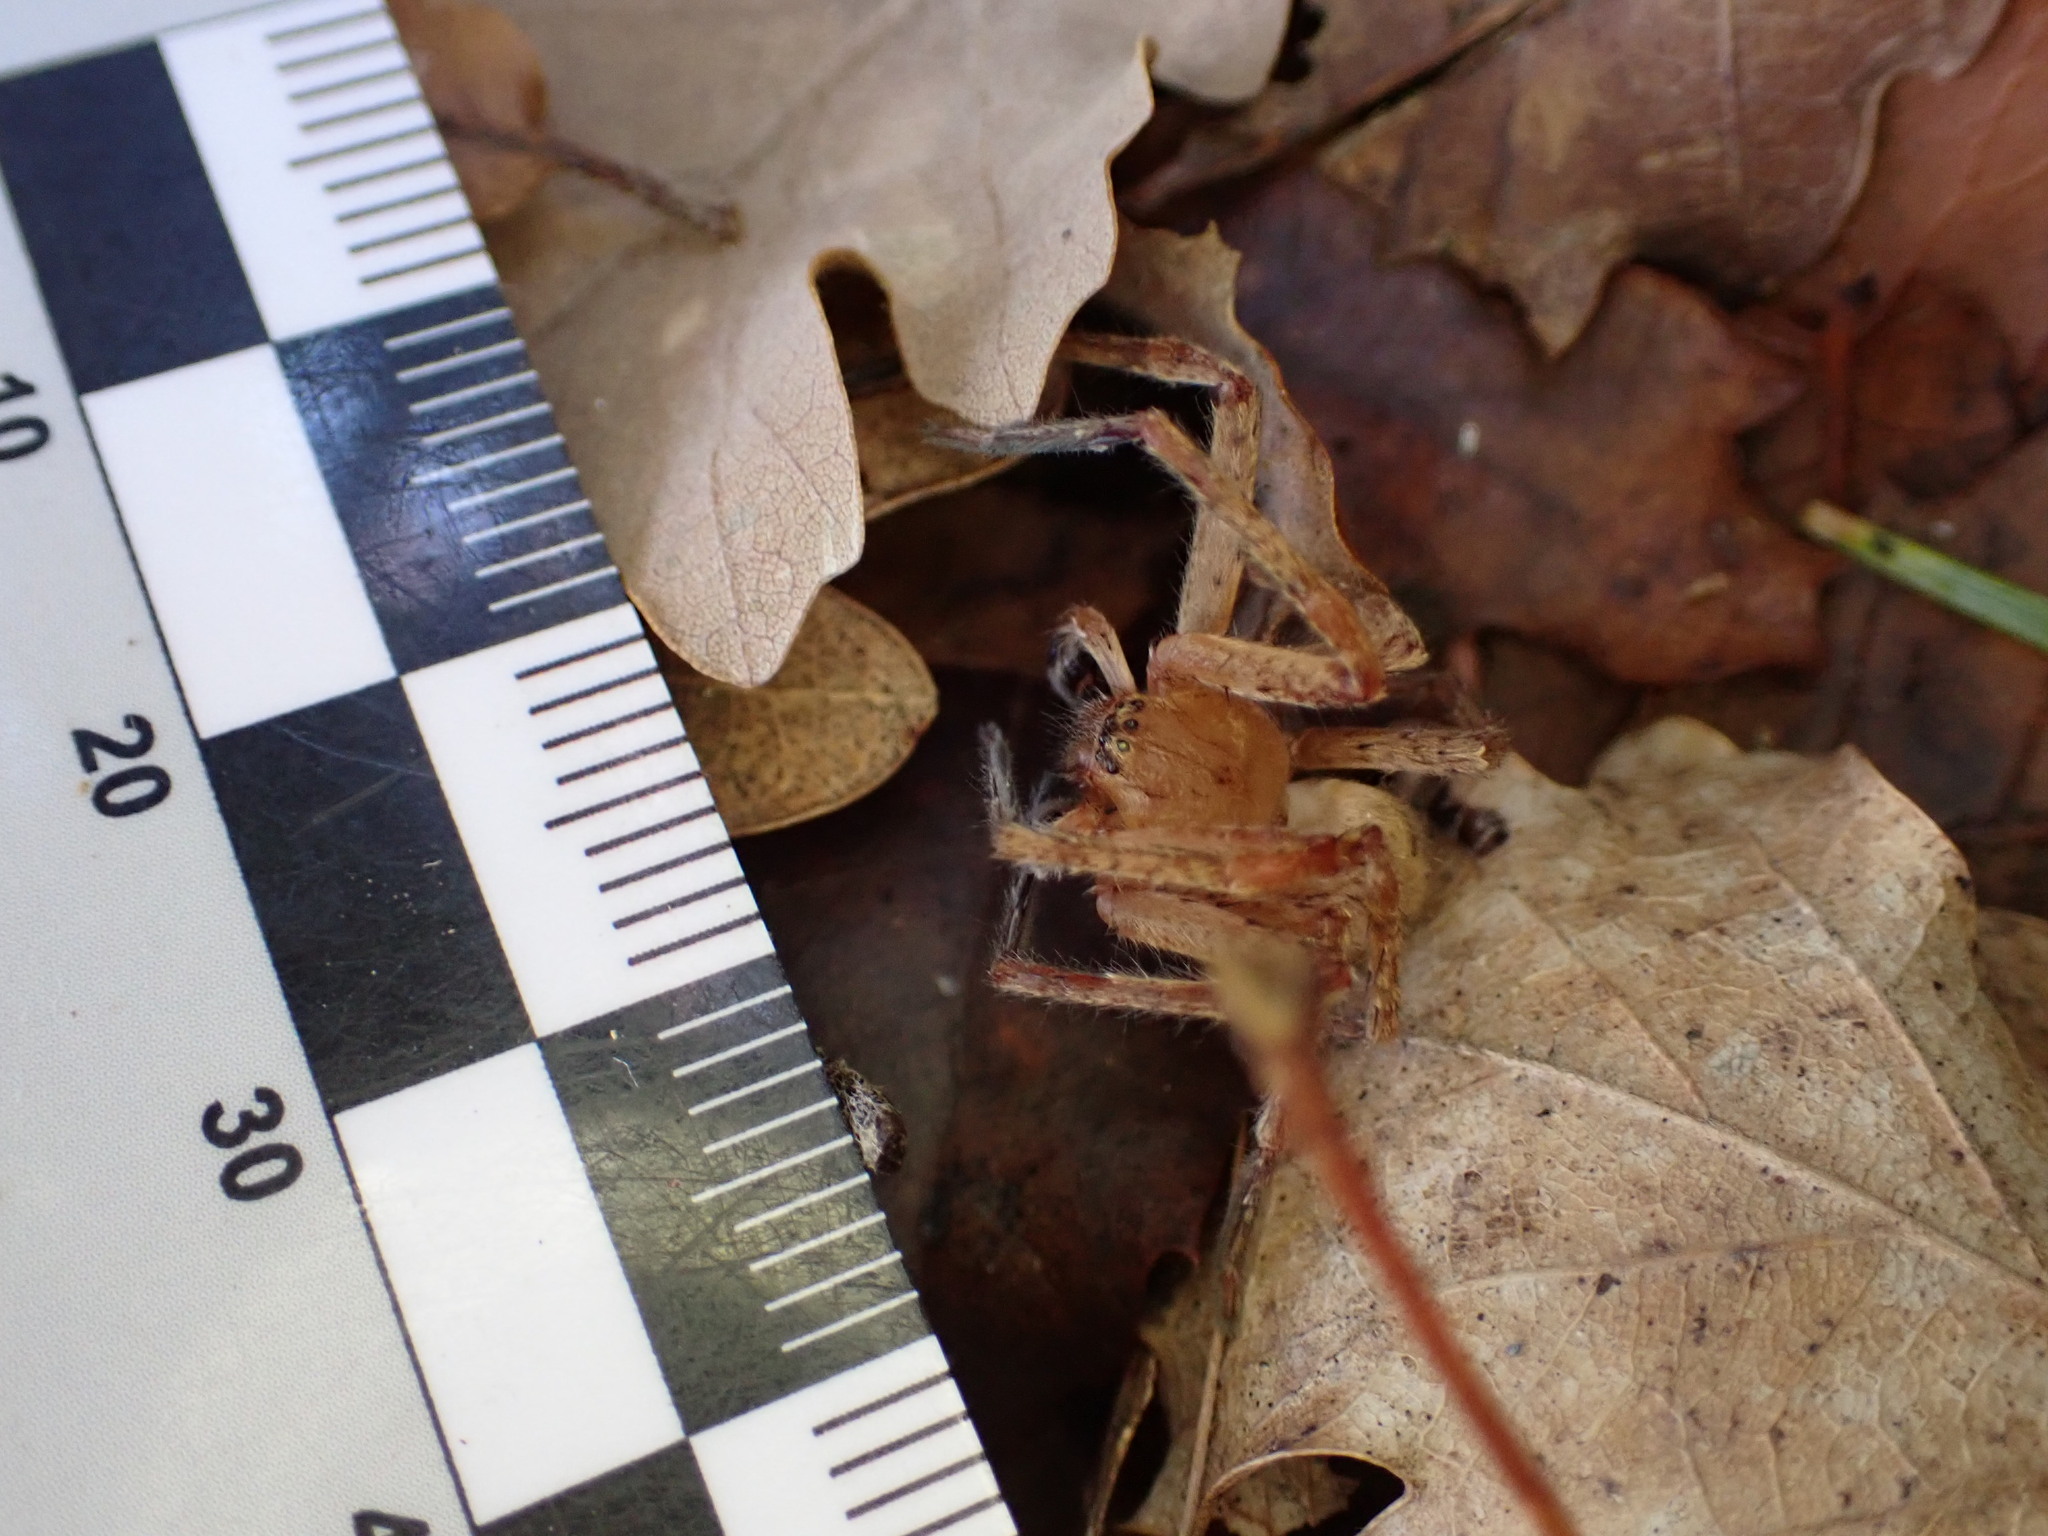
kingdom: Animalia
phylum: Arthropoda
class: Arachnida
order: Araneae
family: Sparassidae
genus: Olios
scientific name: Olios argelasius
